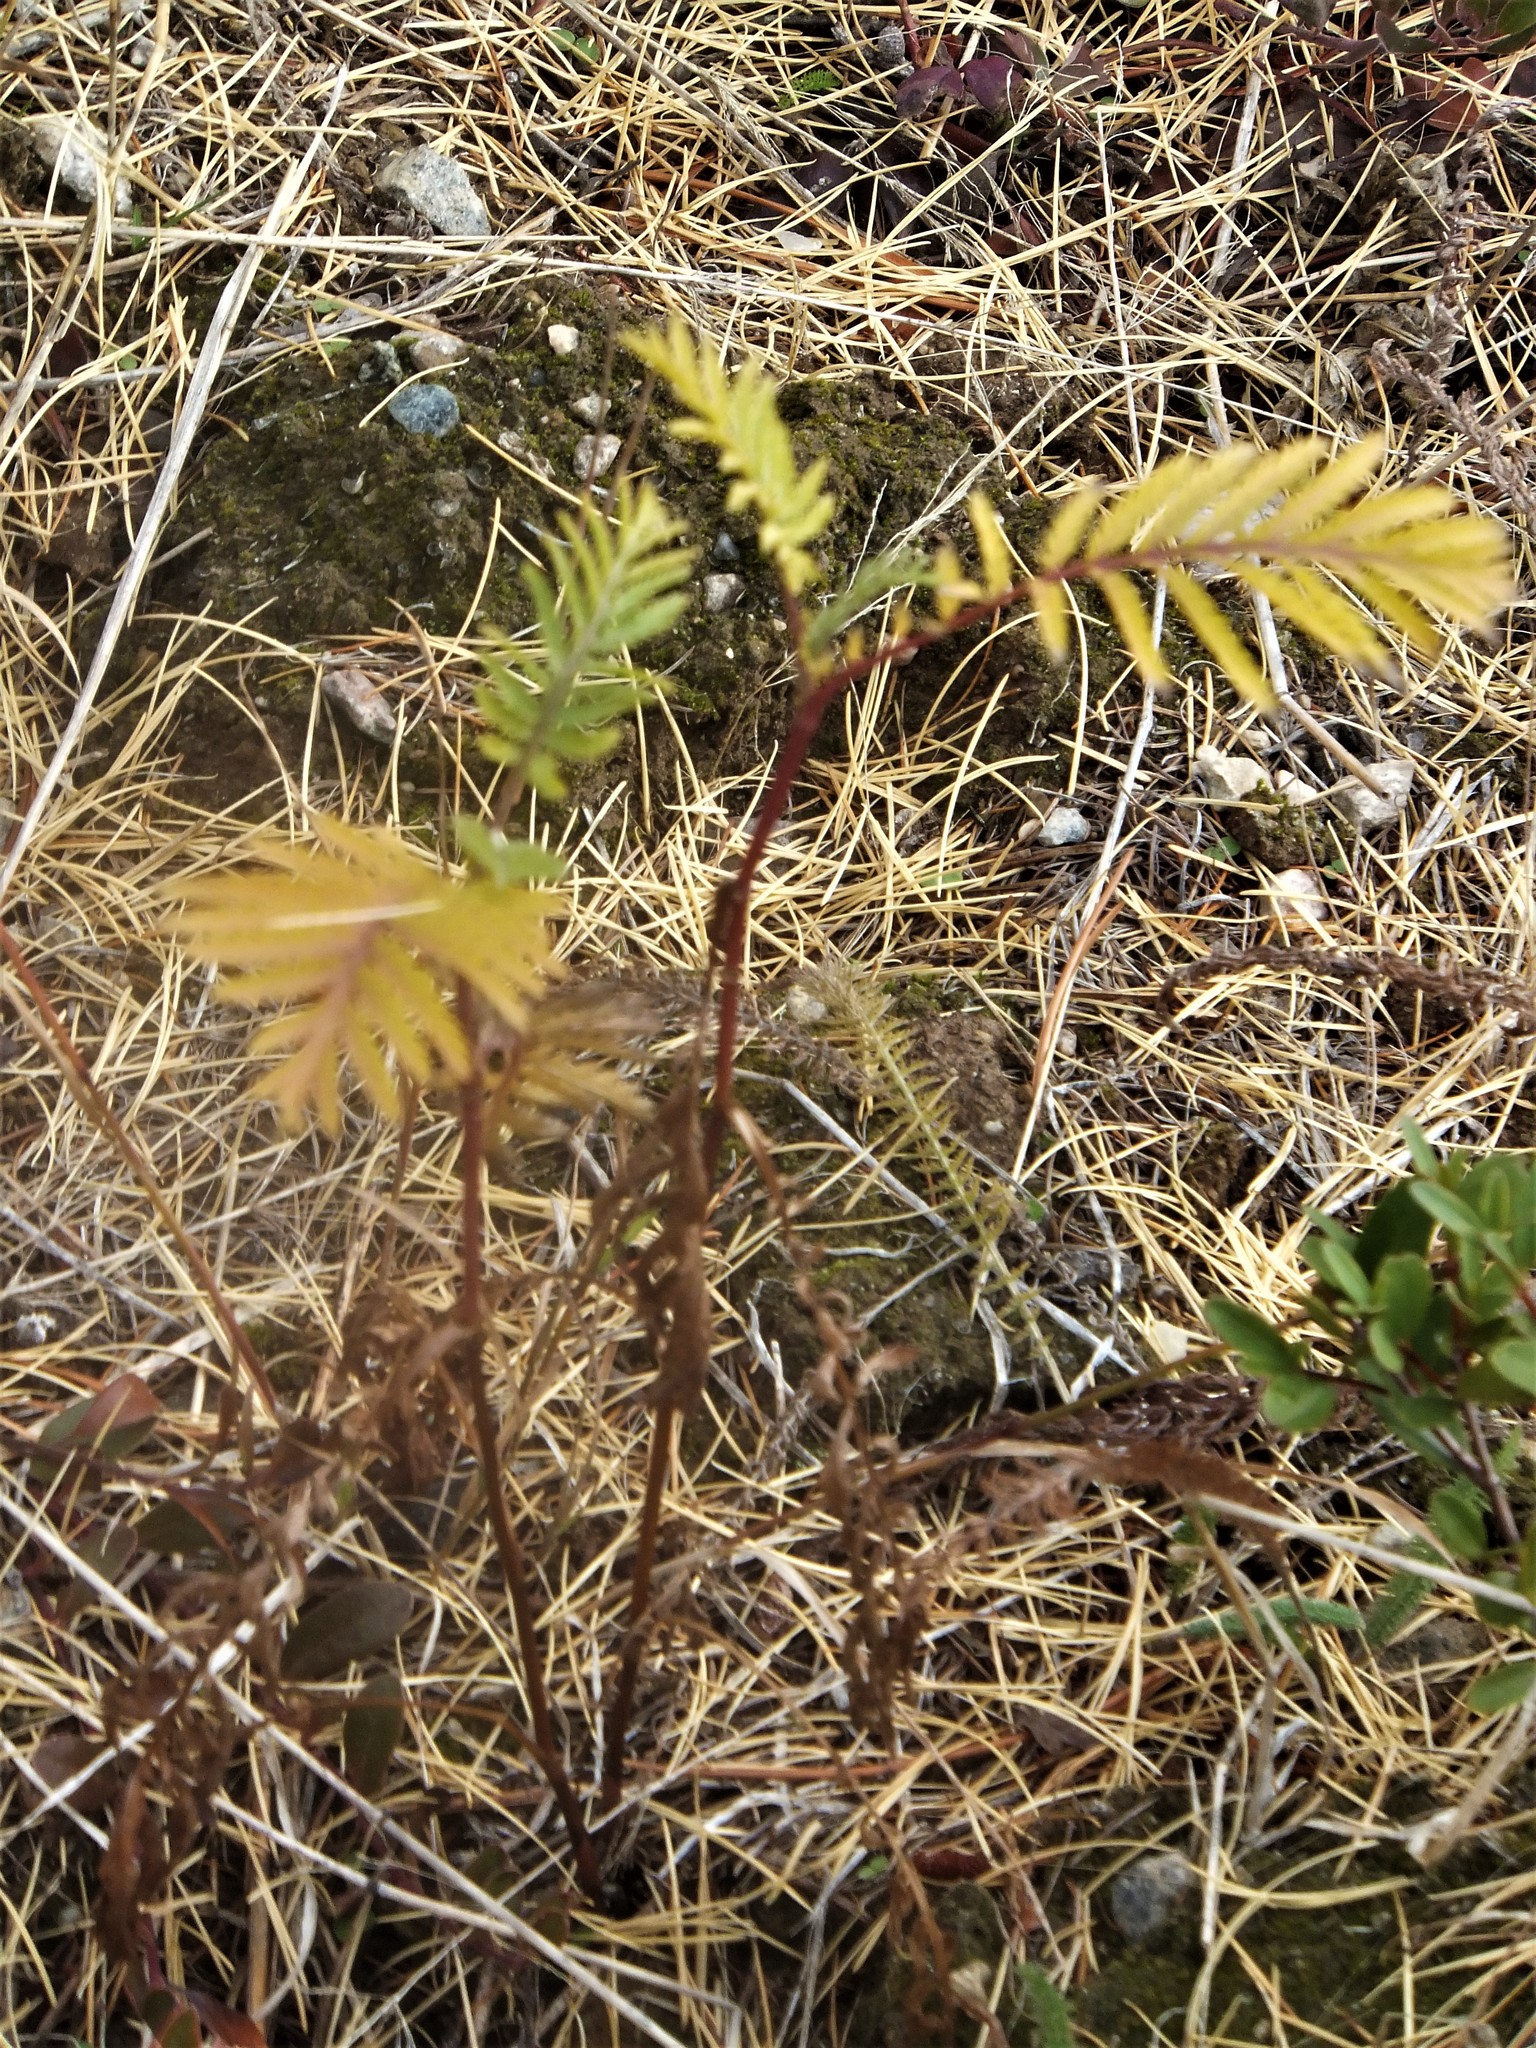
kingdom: Plantae
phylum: Tracheophyta
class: Magnoliopsida
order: Asterales
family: Asteraceae
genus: Tanacetum
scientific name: Tanacetum vulgare
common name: Common tansy
